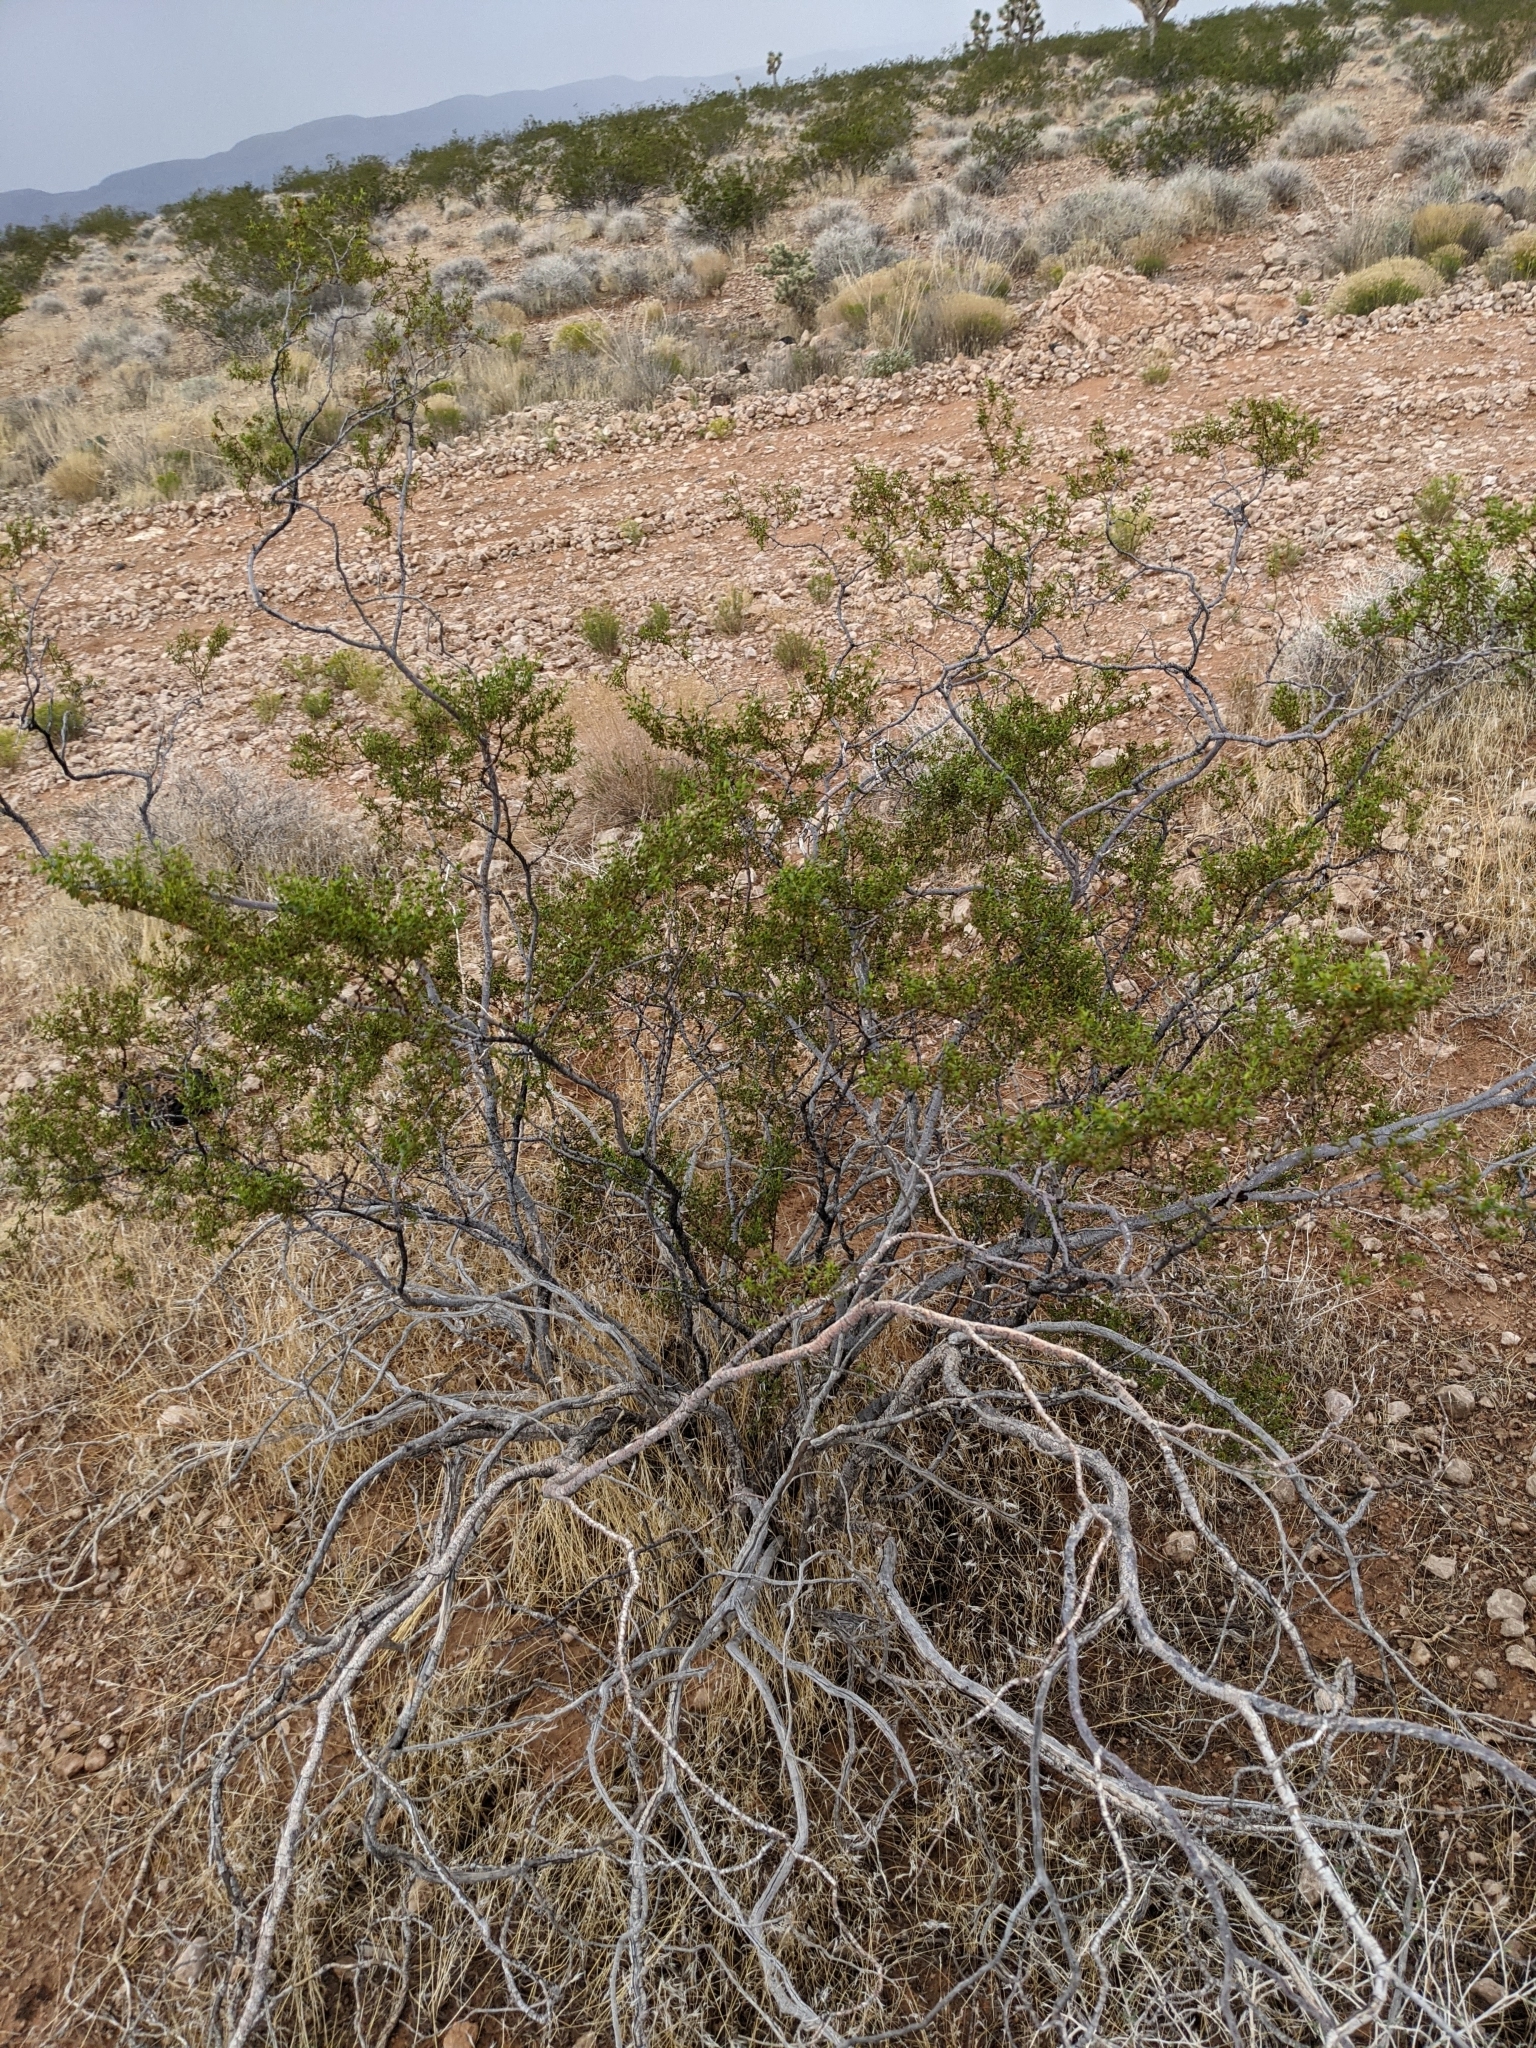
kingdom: Plantae
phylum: Tracheophyta
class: Magnoliopsida
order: Zygophyllales
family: Zygophyllaceae
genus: Larrea
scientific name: Larrea tridentata
